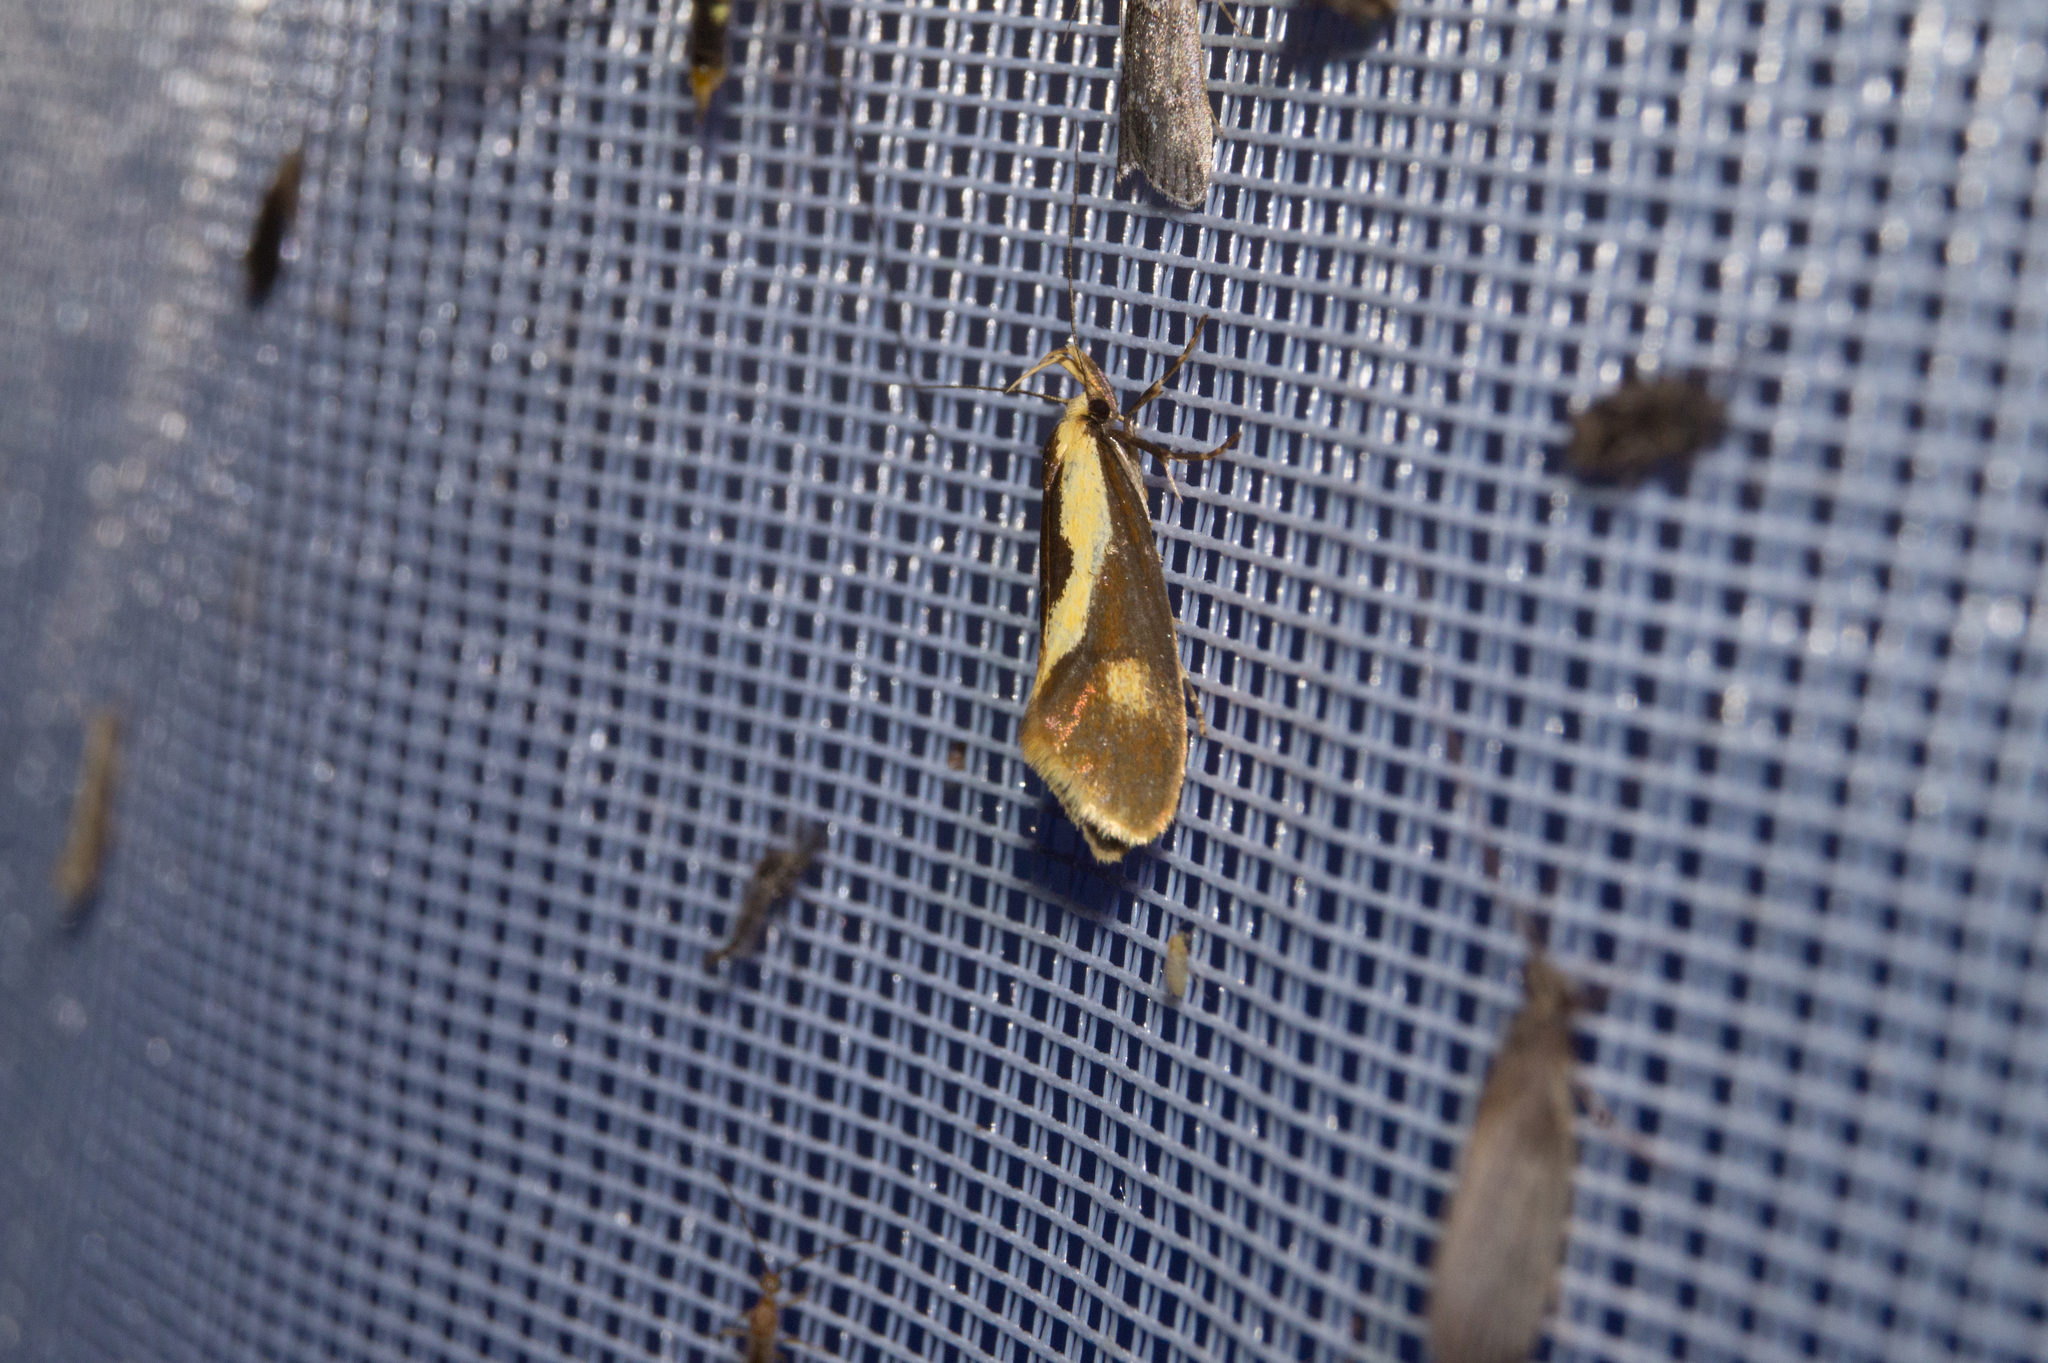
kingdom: Animalia
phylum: Arthropoda
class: Insecta
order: Lepidoptera
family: Oecophoridae
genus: Harpella
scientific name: Harpella forficella
